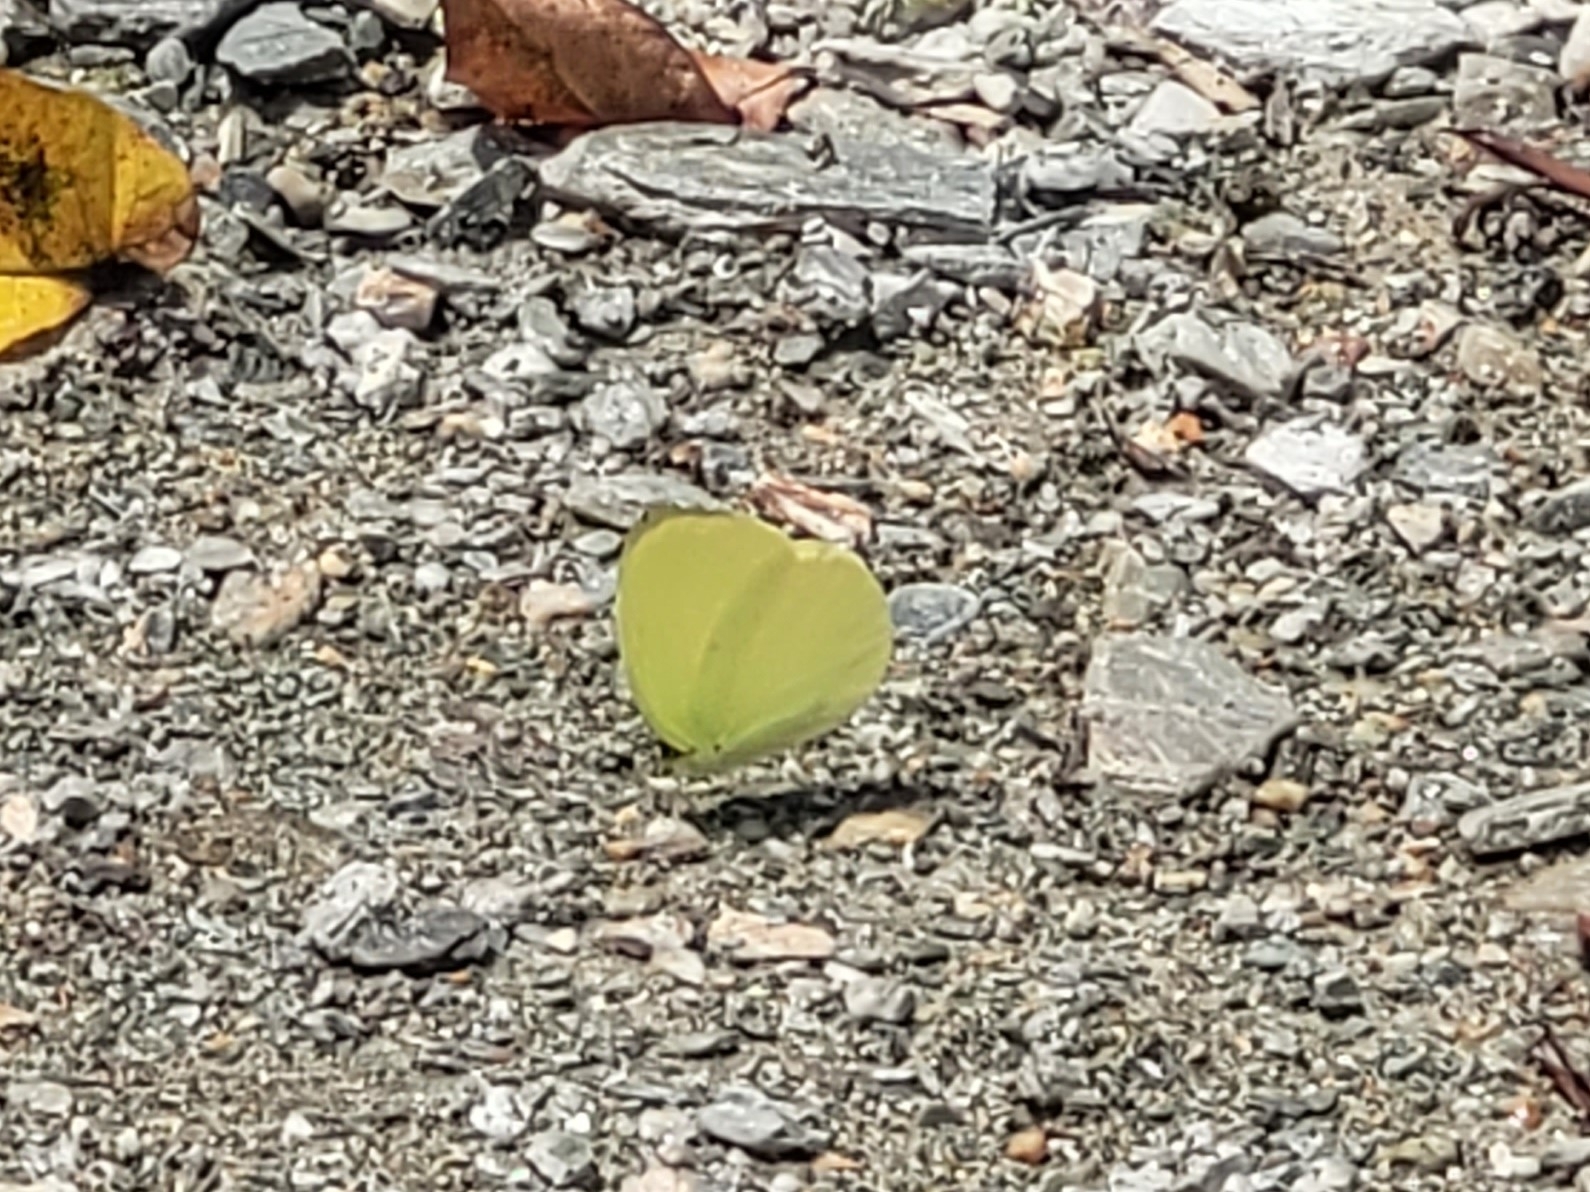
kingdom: Animalia
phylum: Arthropoda
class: Insecta
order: Lepidoptera
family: Pieridae
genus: Gandaca
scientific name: Gandaca harina
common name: Tree yellow
